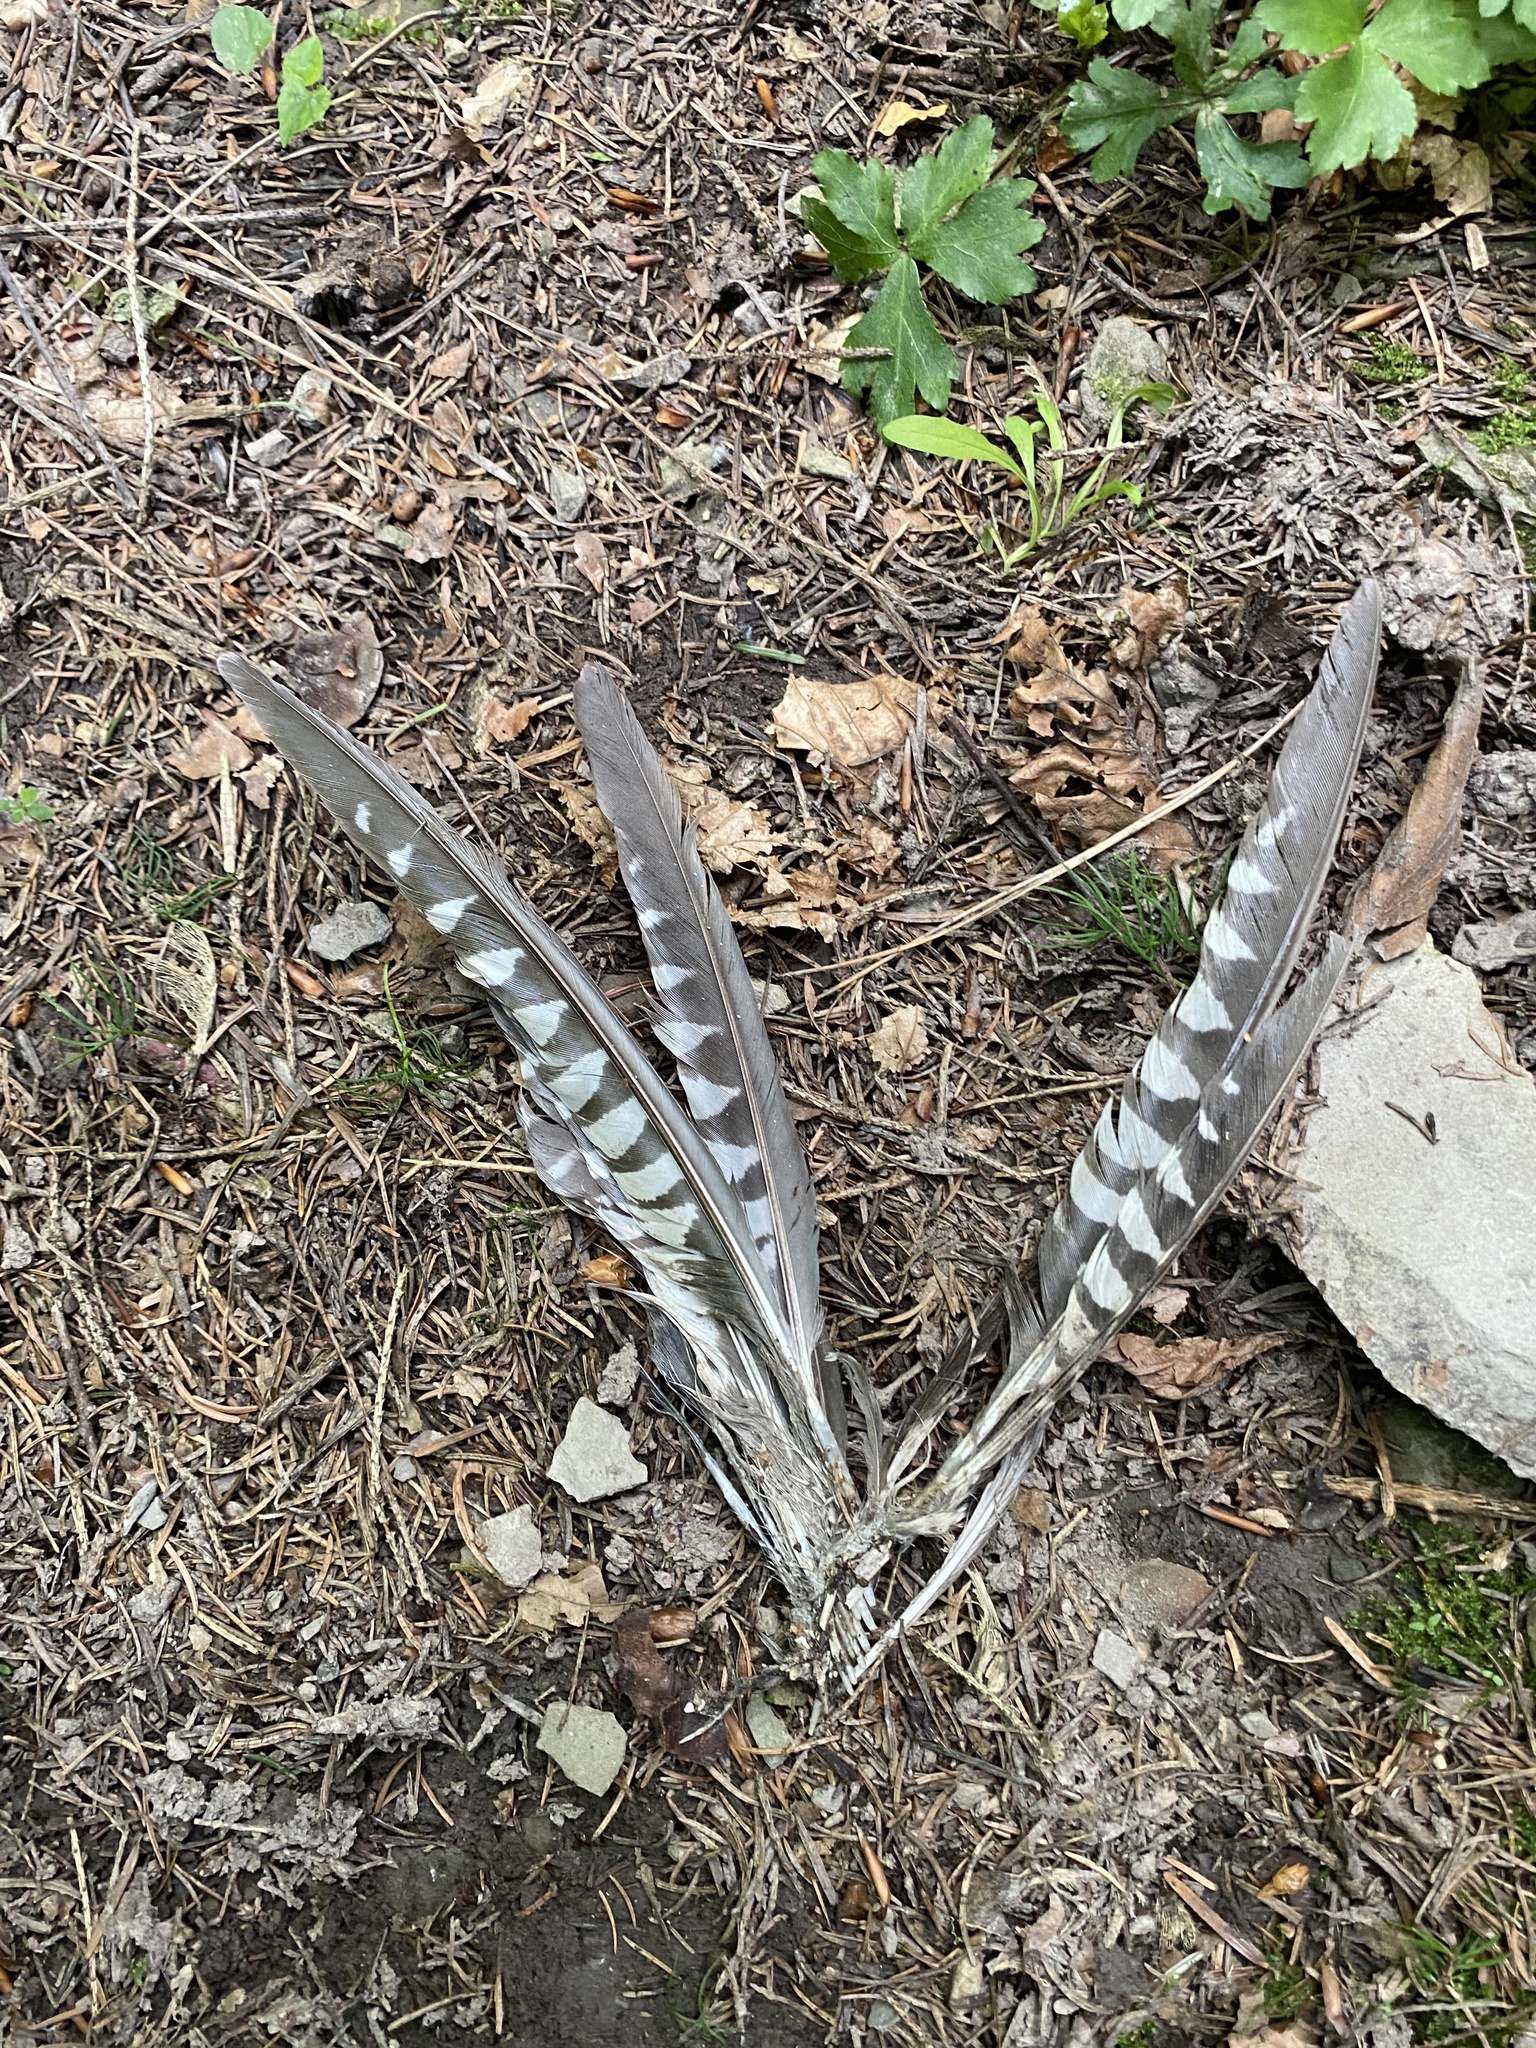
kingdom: Animalia
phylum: Chordata
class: Aves
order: Cuculiformes
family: Cuculidae
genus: Cuculus
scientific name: Cuculus canorus
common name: Common cuckoo
